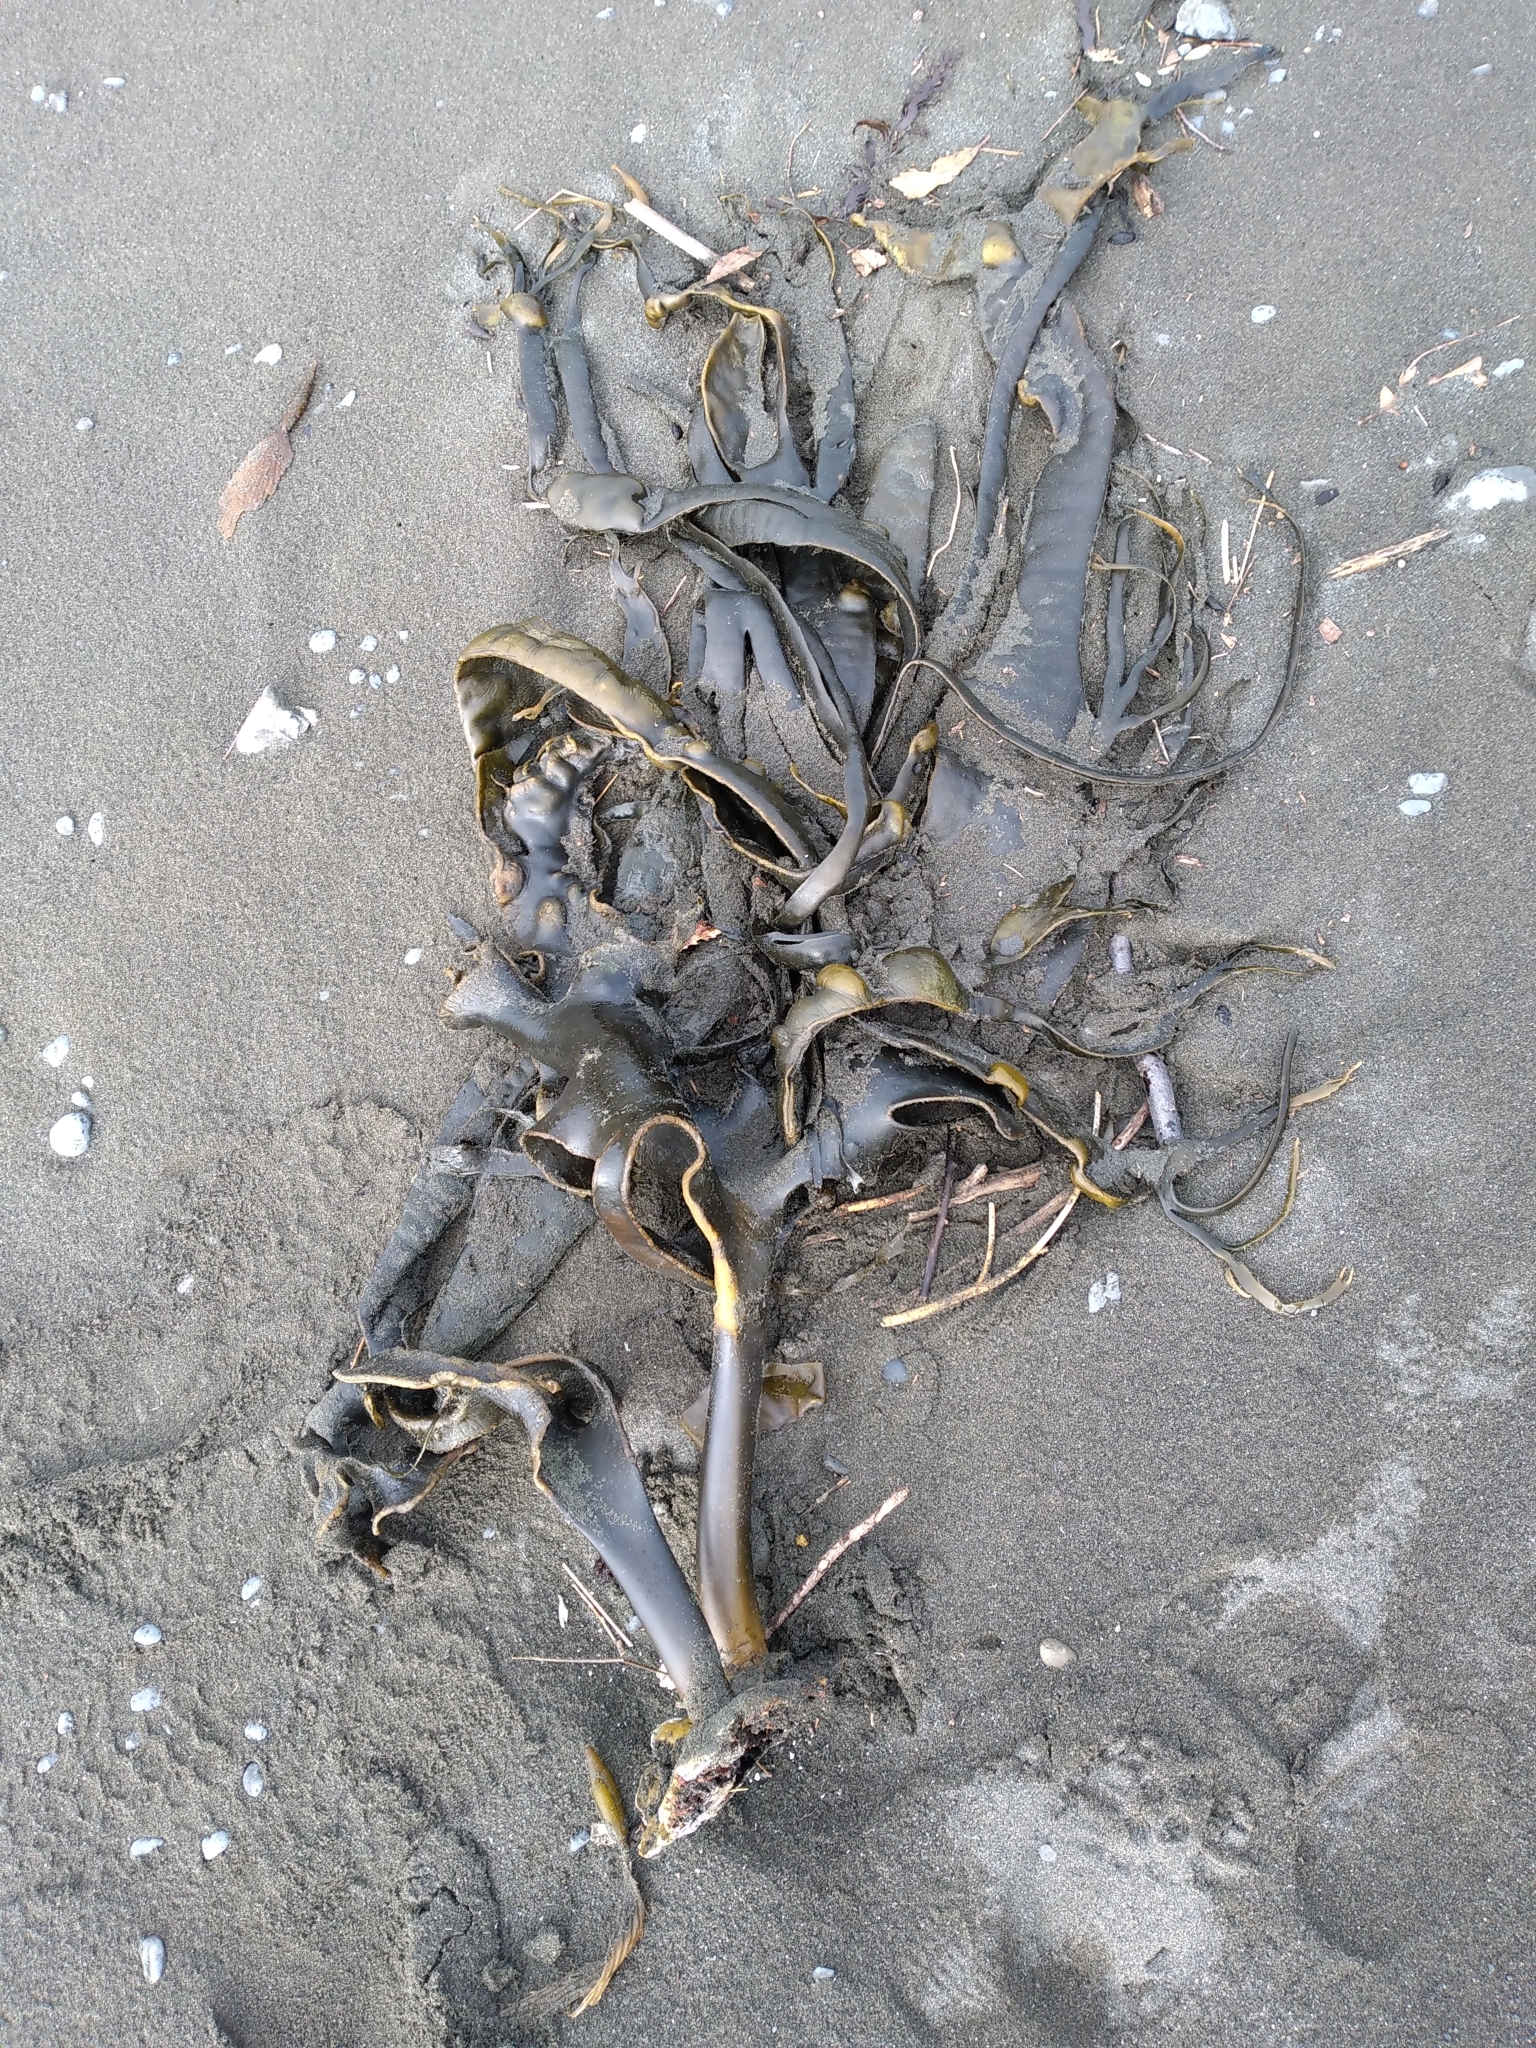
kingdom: Chromista
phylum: Ochrophyta
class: Phaeophyceae
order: Fucales
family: Durvillaeaceae
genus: Durvillaea
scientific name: Durvillaea antarctica
